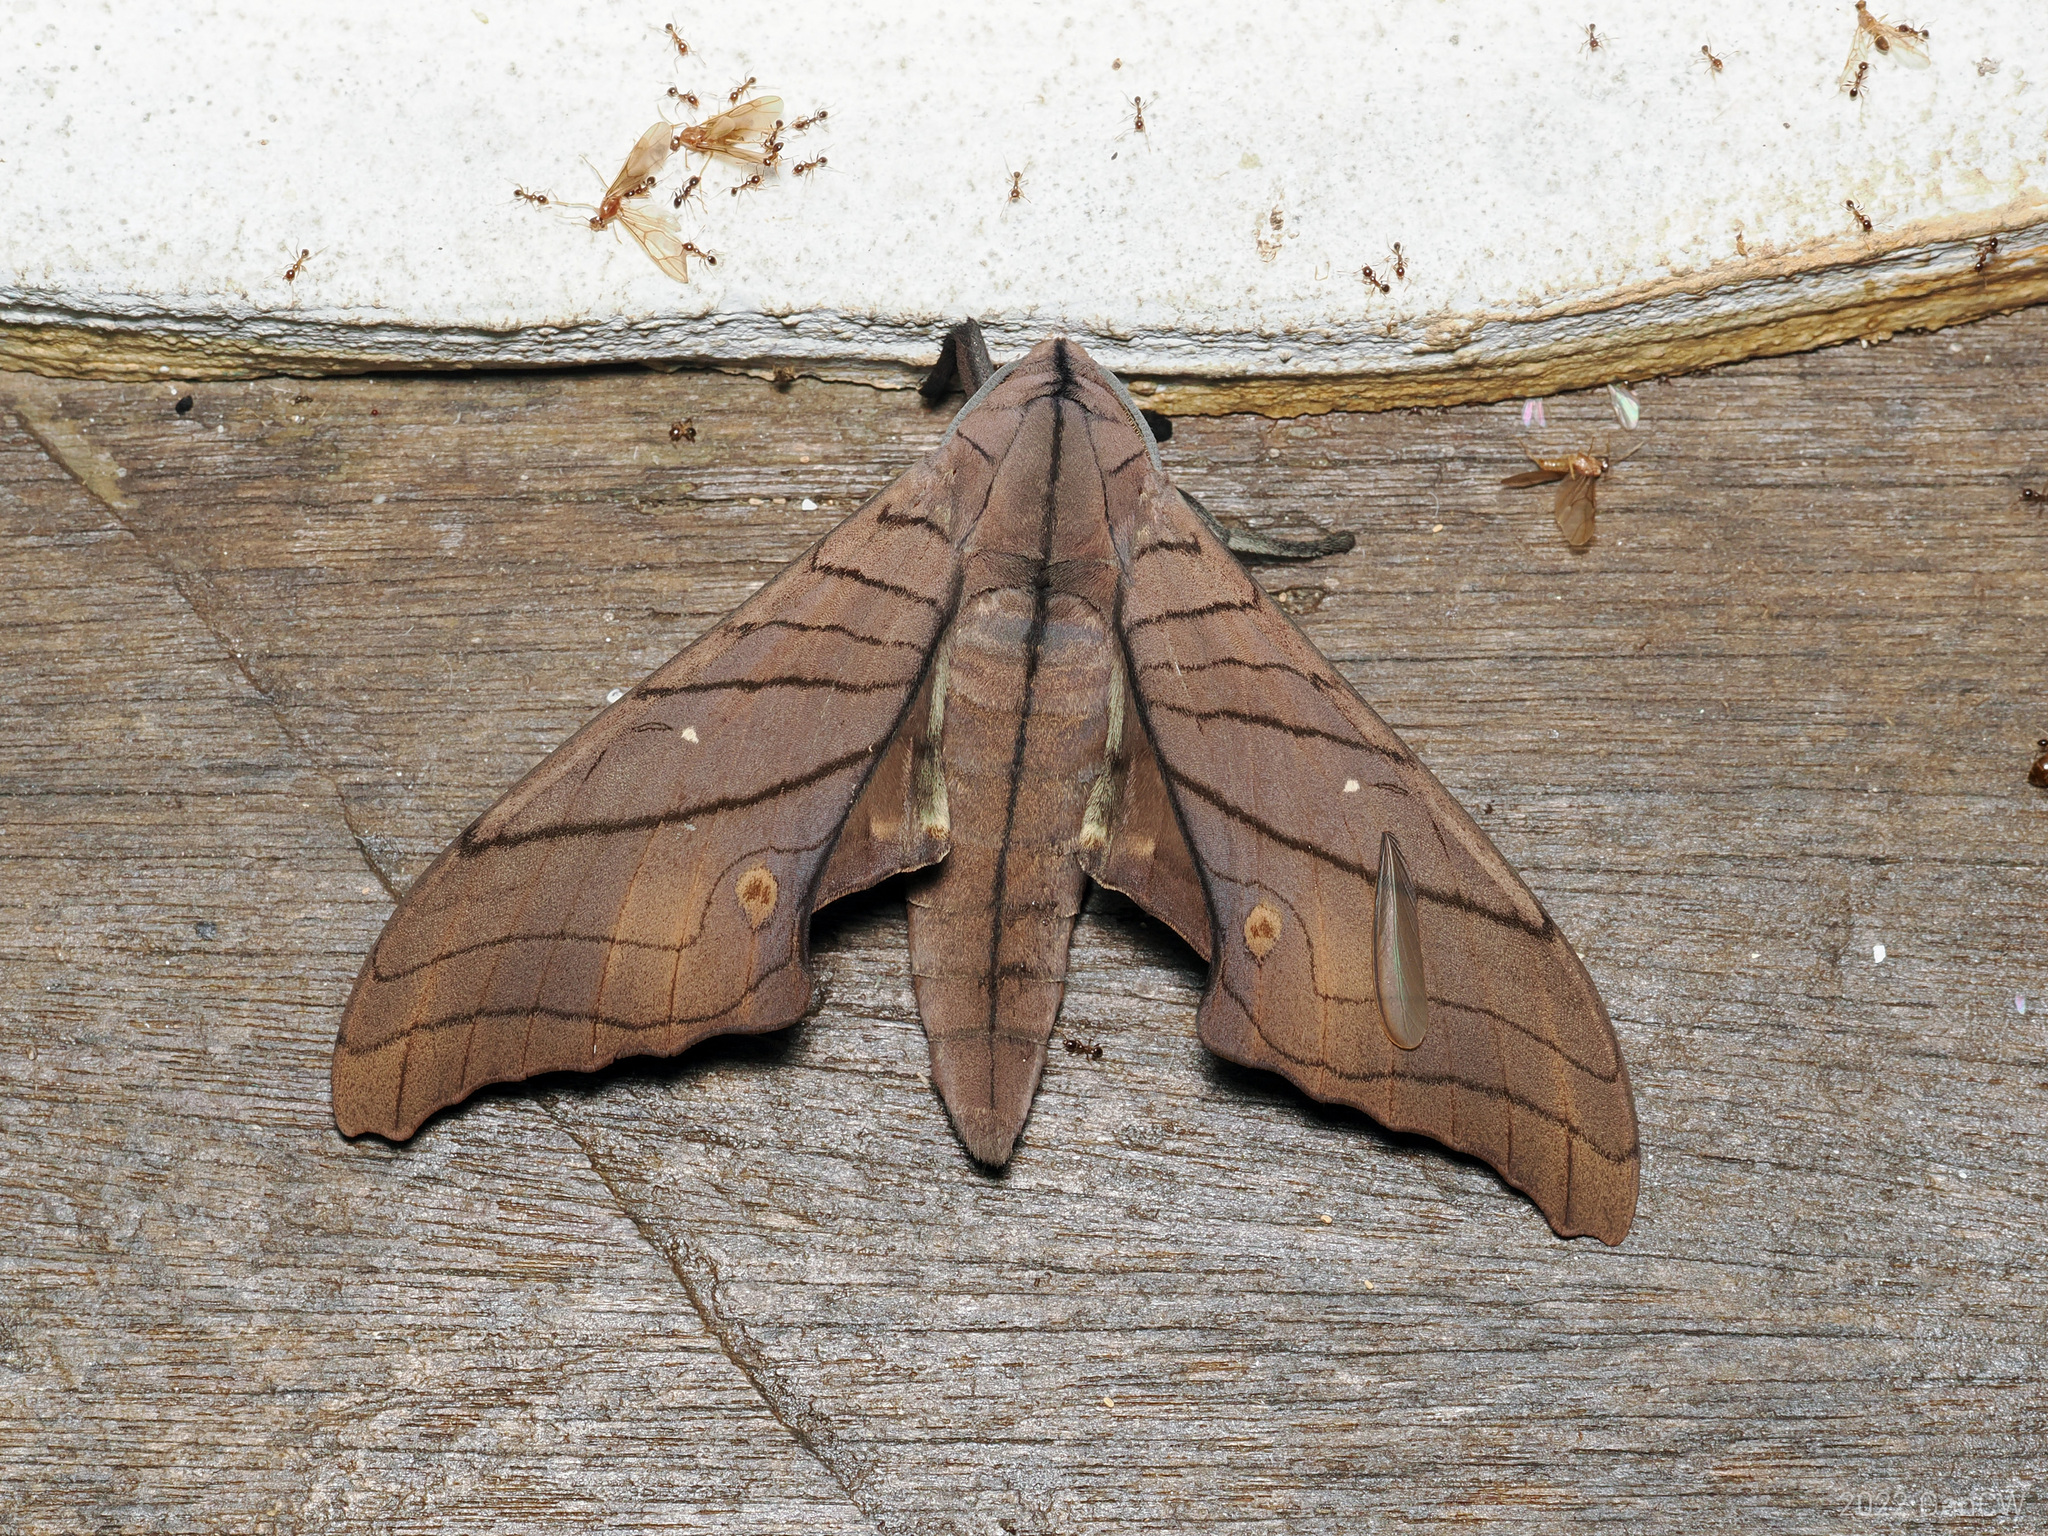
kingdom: Animalia
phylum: Arthropoda
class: Insecta
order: Lepidoptera
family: Sphingidae
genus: Marumba
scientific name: Marumba cristata
